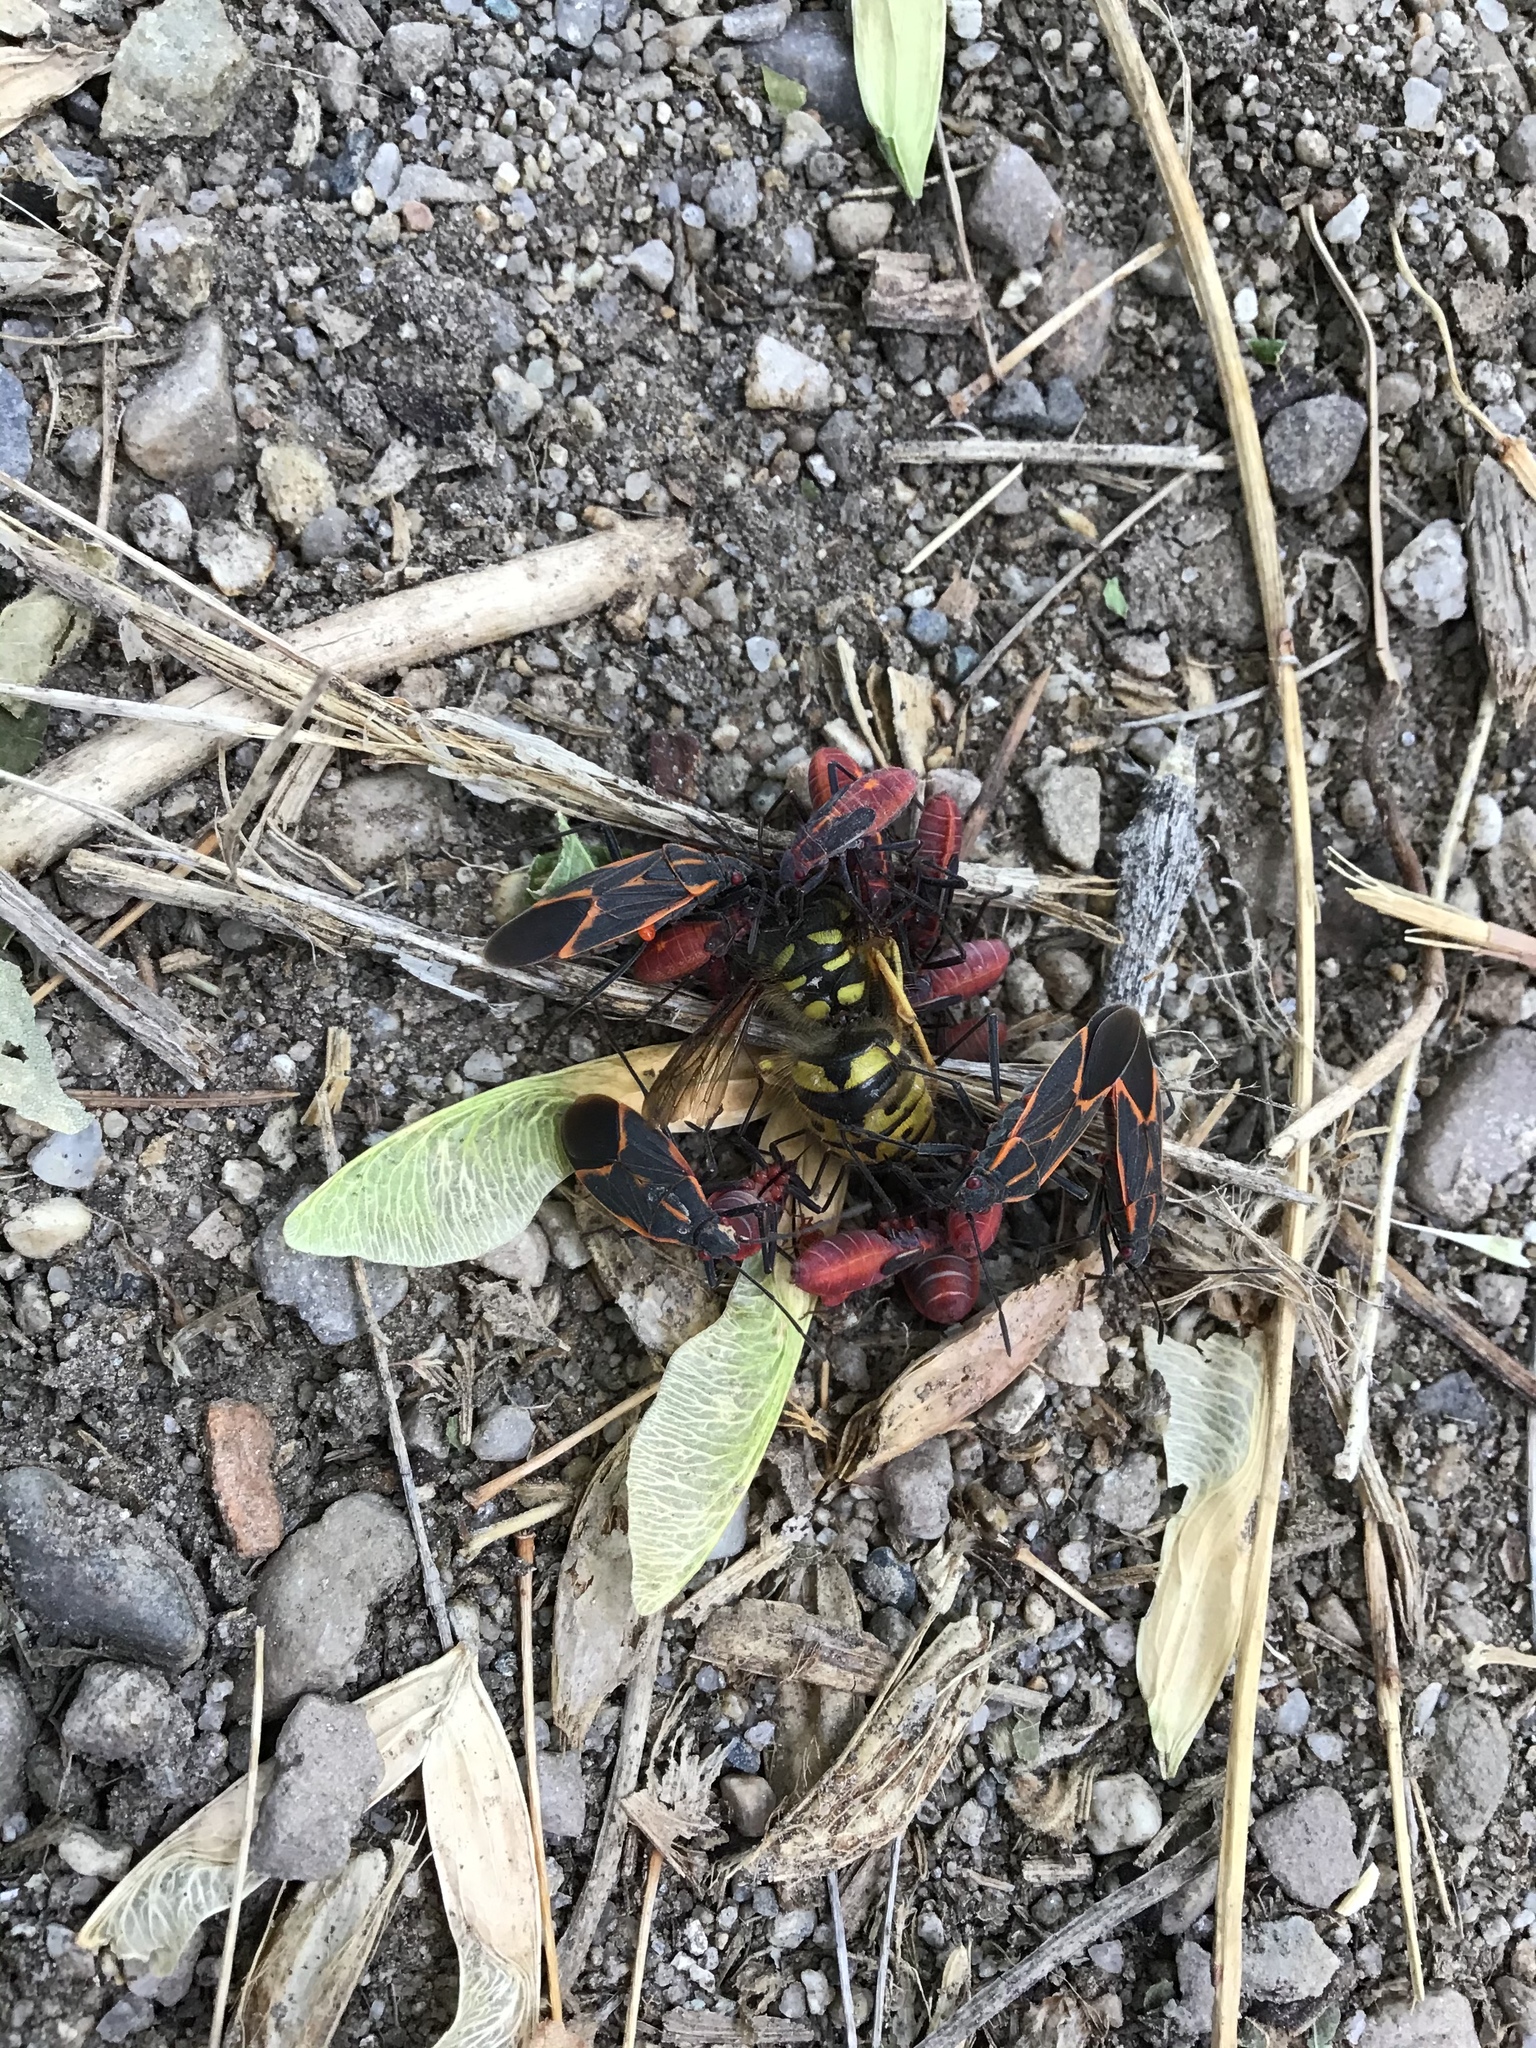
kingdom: Animalia
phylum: Arthropoda
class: Insecta
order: Hemiptera
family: Rhopalidae
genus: Boisea
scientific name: Boisea trivittata
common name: Boxelder bug
